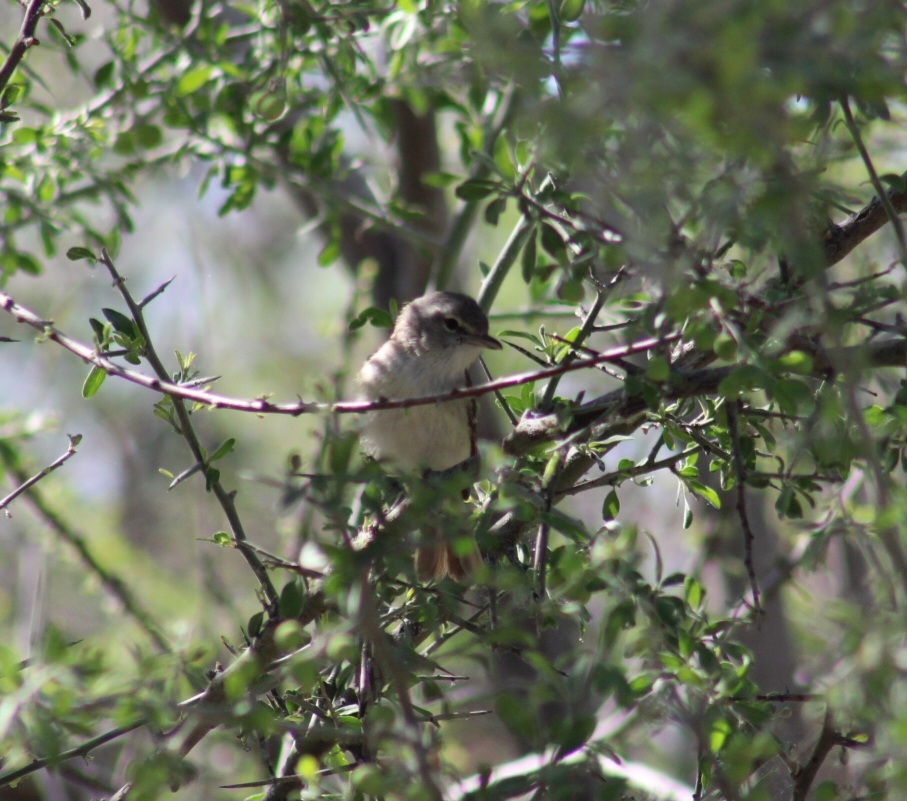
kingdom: Animalia
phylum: Chordata
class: Aves
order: Passeriformes
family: Vireonidae
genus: Vireo
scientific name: Vireo bellii
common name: Bell's vireo
